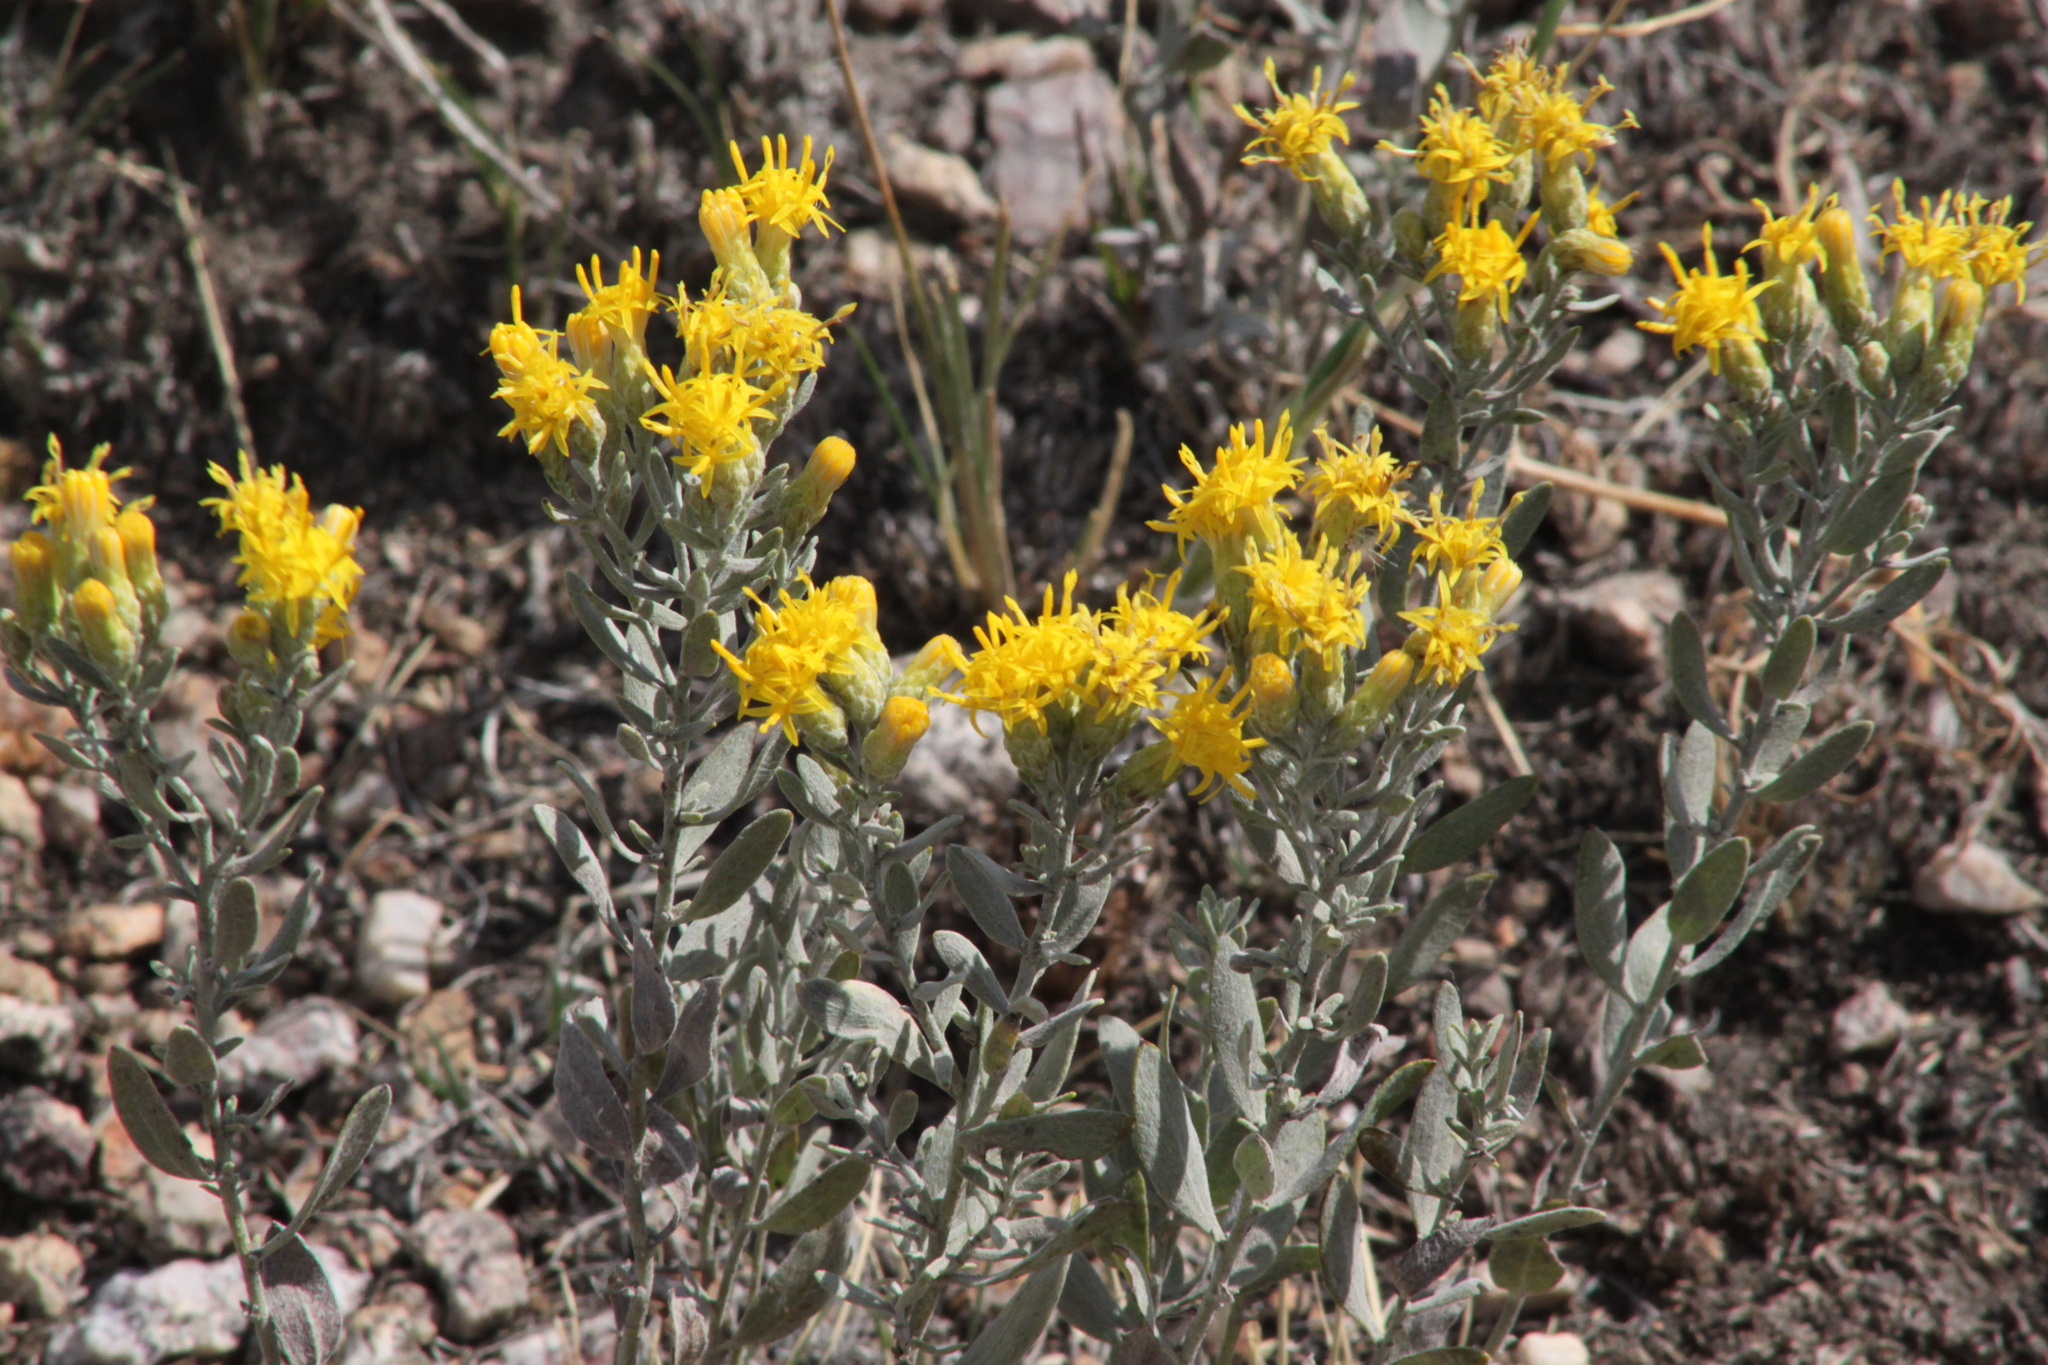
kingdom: Plantae
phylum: Tracheophyta
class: Magnoliopsida
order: Asterales
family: Asteraceae
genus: Galatella
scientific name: Galatella villosa
